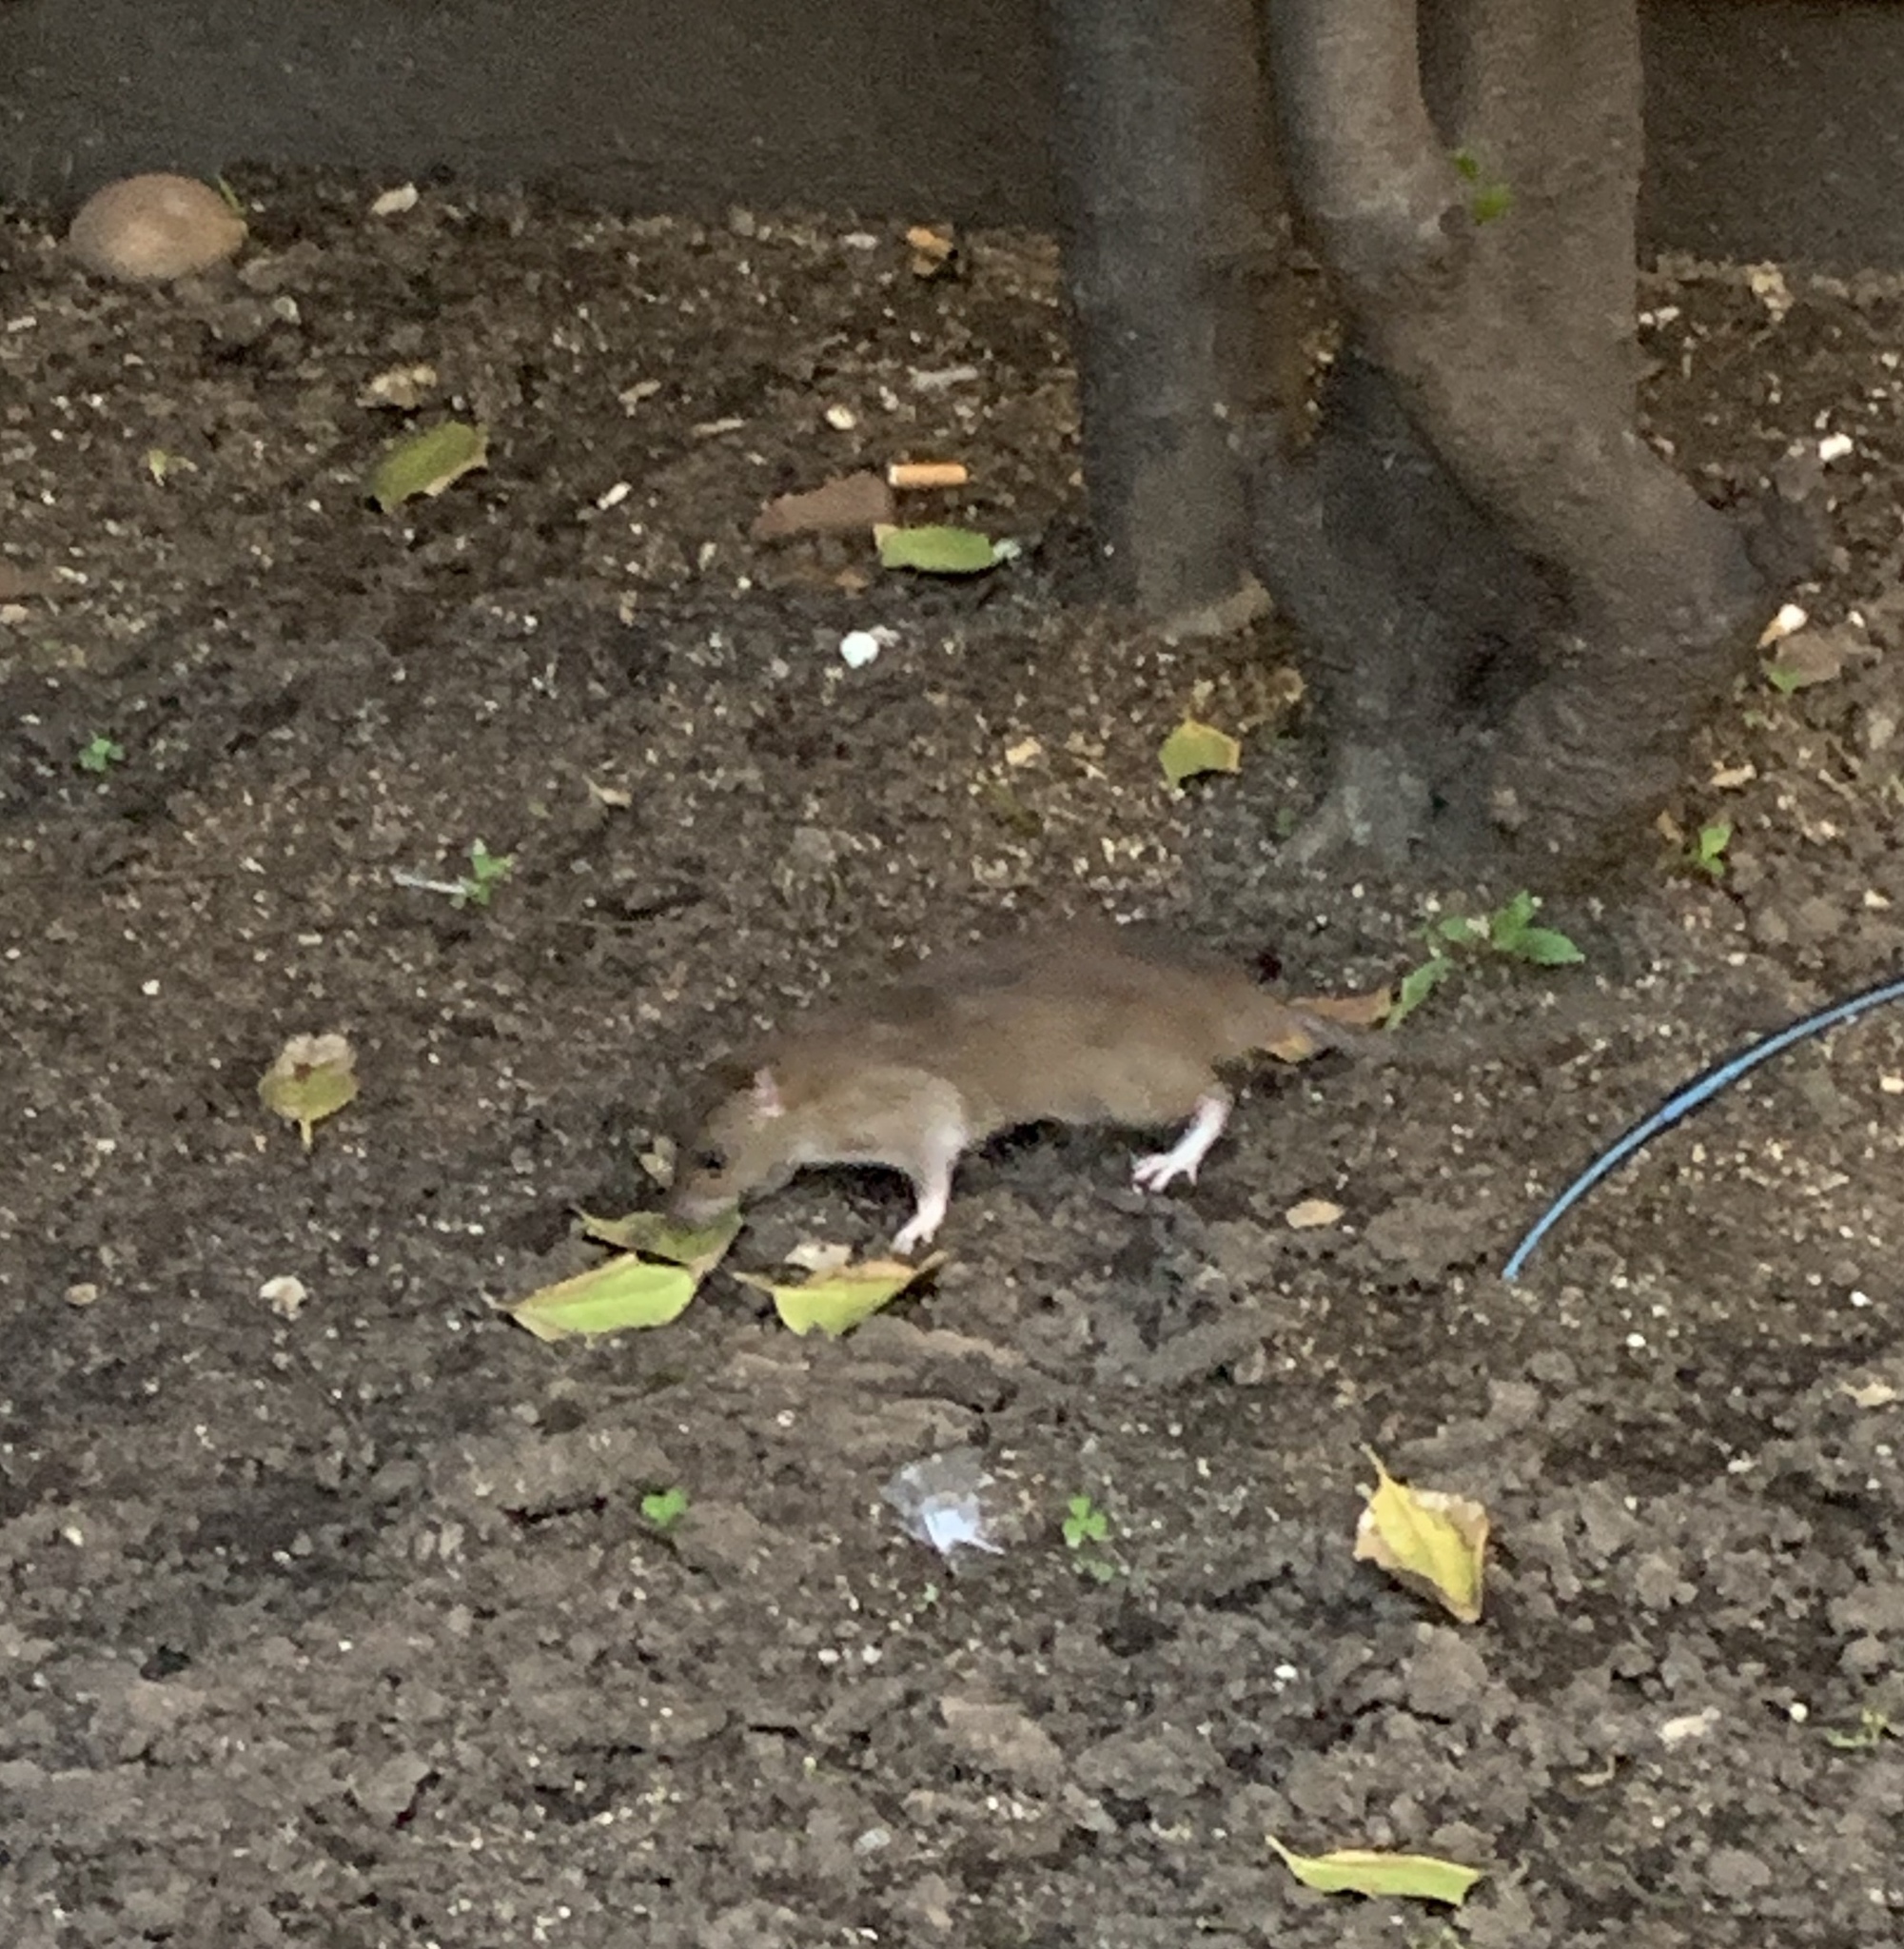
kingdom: Animalia
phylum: Chordata
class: Mammalia
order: Rodentia
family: Muridae
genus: Rattus
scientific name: Rattus norvegicus
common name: Brown rat
